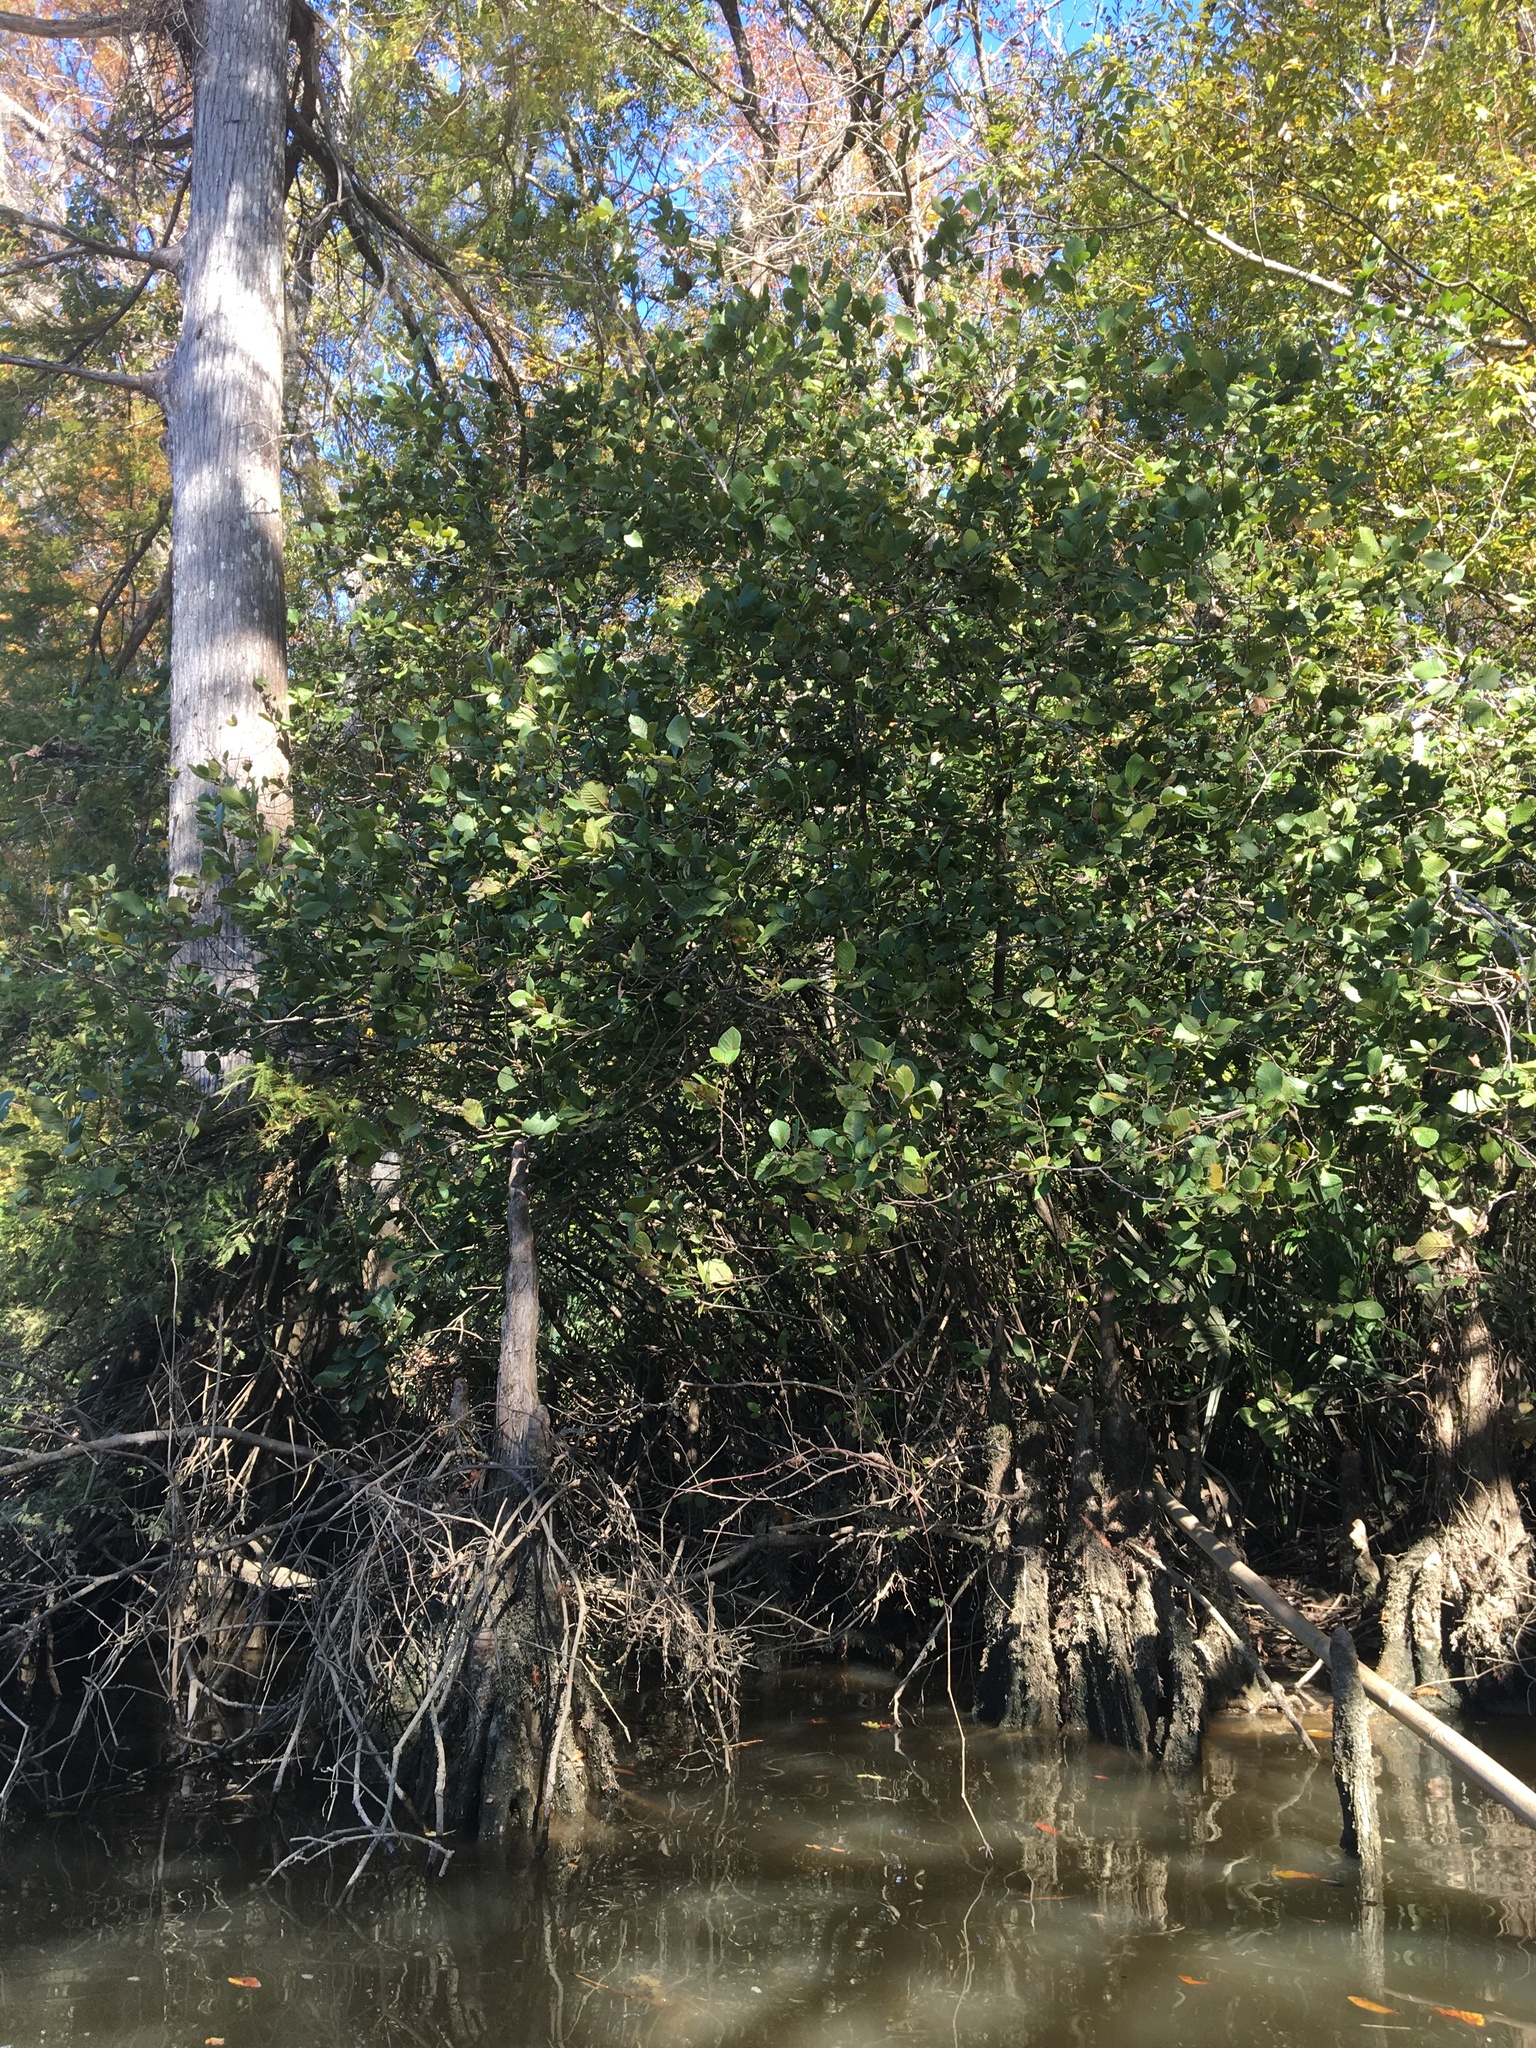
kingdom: Plantae
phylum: Tracheophyta
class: Magnoliopsida
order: Fagales
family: Betulaceae
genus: Alnus
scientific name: Alnus serrulata
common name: Hazel alder
